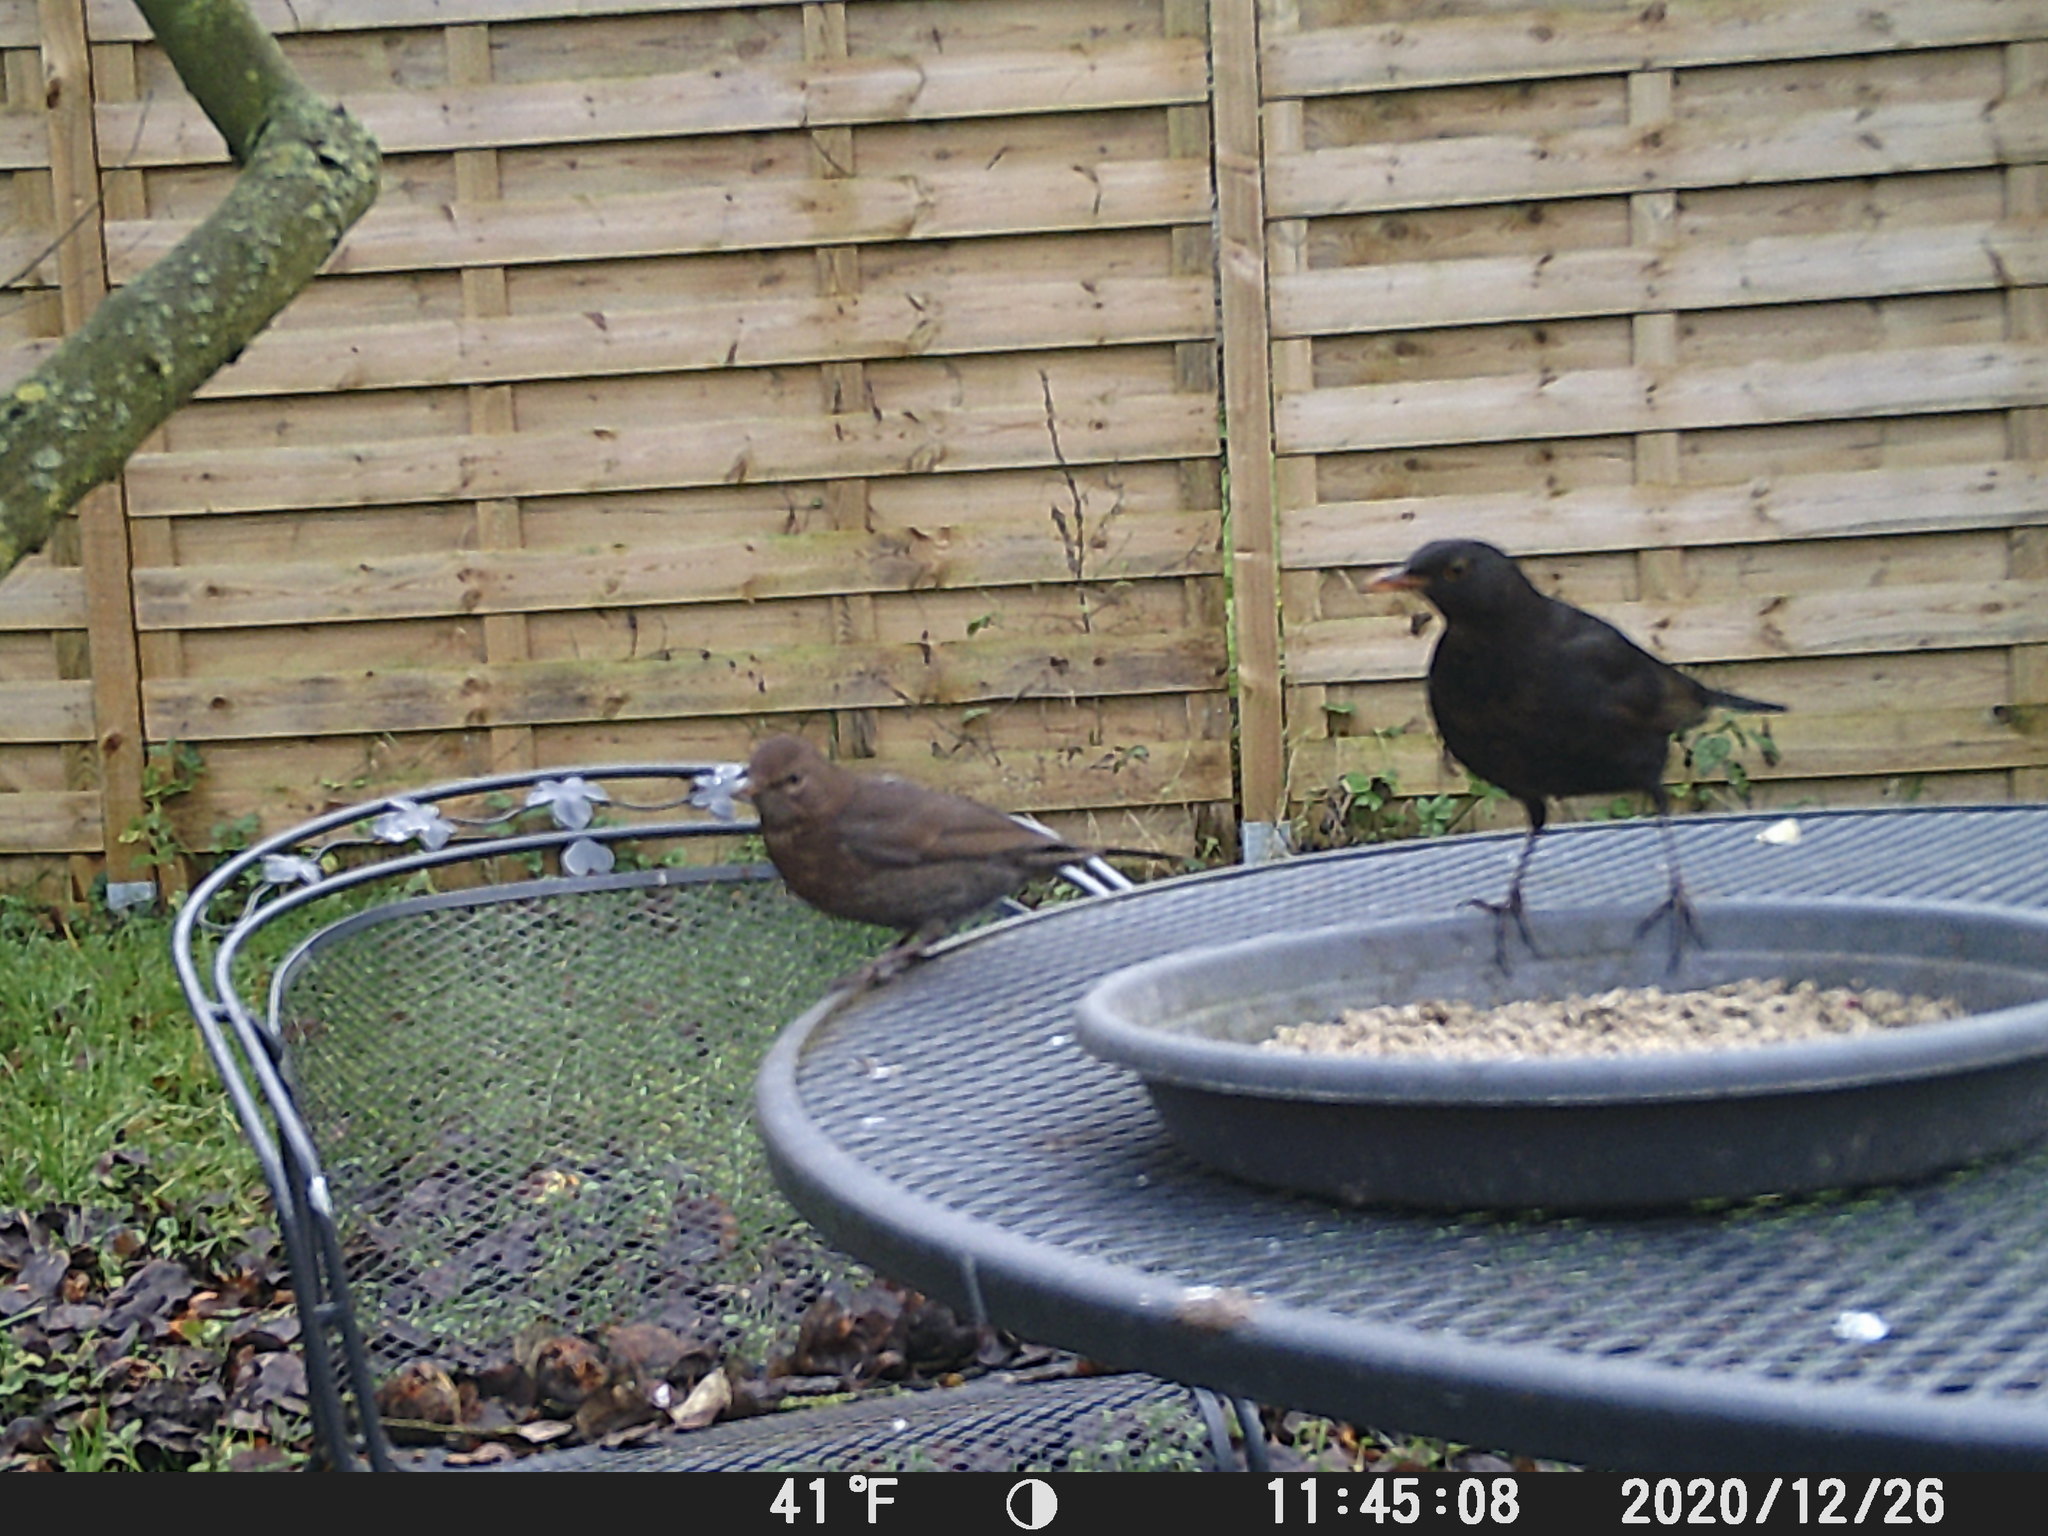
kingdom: Animalia
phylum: Chordata
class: Aves
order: Passeriformes
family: Turdidae
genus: Turdus
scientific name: Turdus merula
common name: Common blackbird
